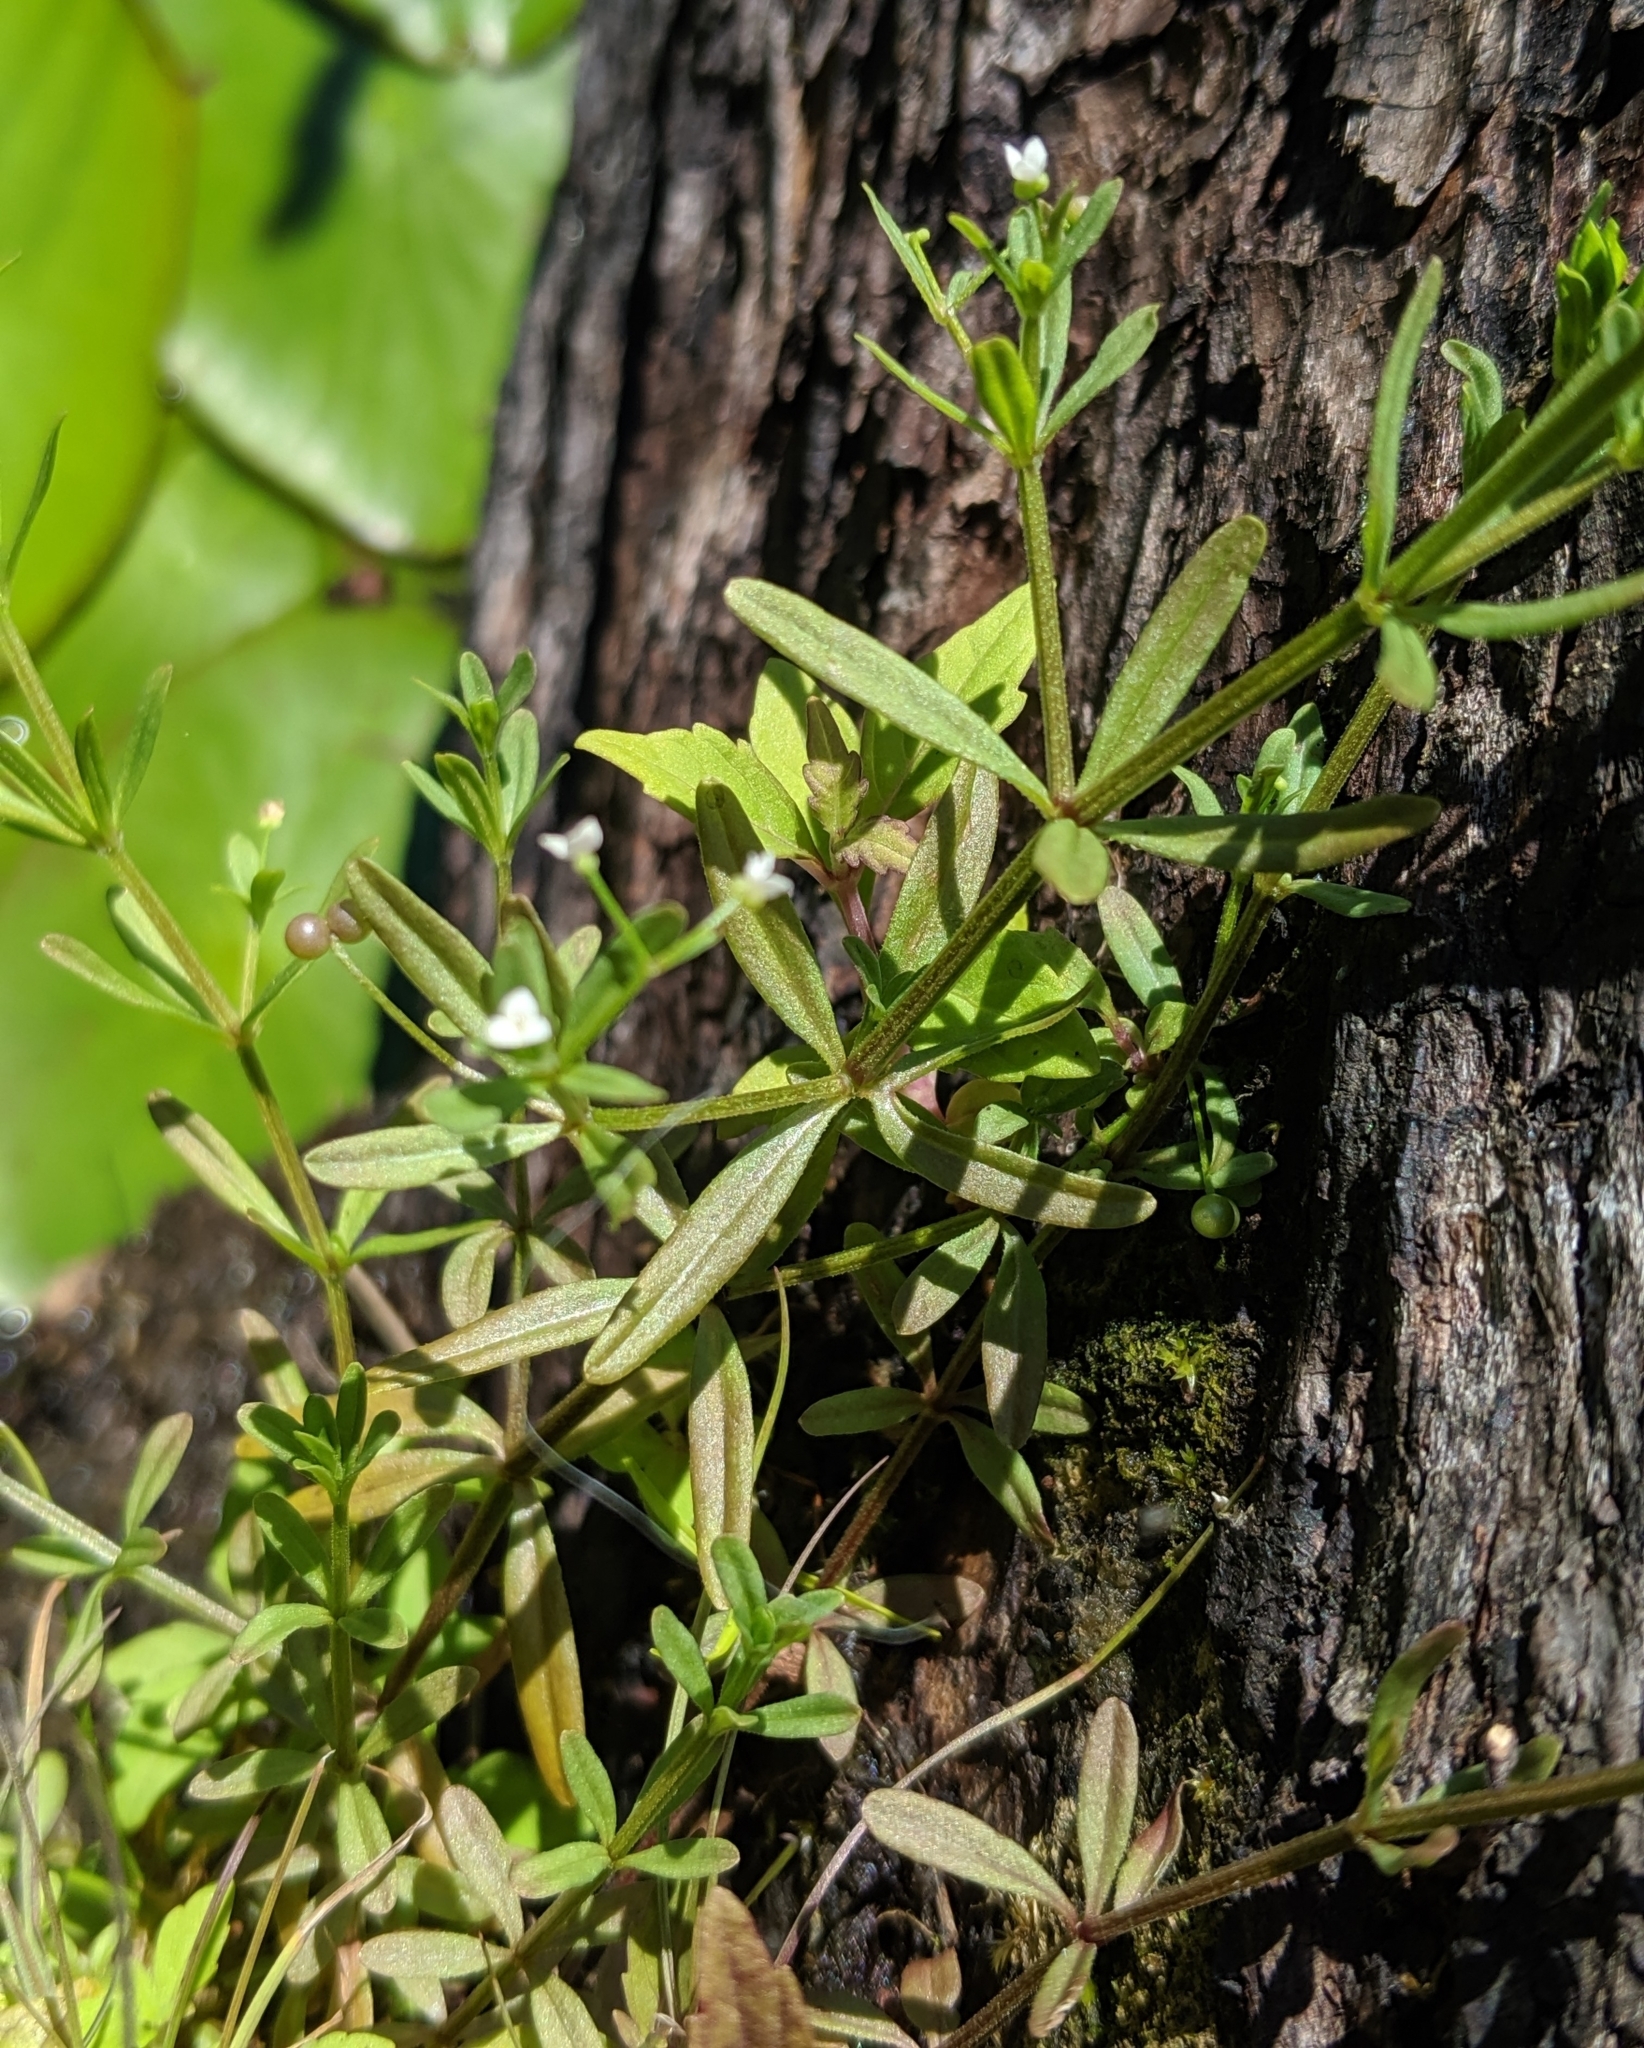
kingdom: Plantae
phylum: Tracheophyta
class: Magnoliopsida
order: Gentianales
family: Rubiaceae
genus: Galium
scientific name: Galium trifidum
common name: Small bedstraw
